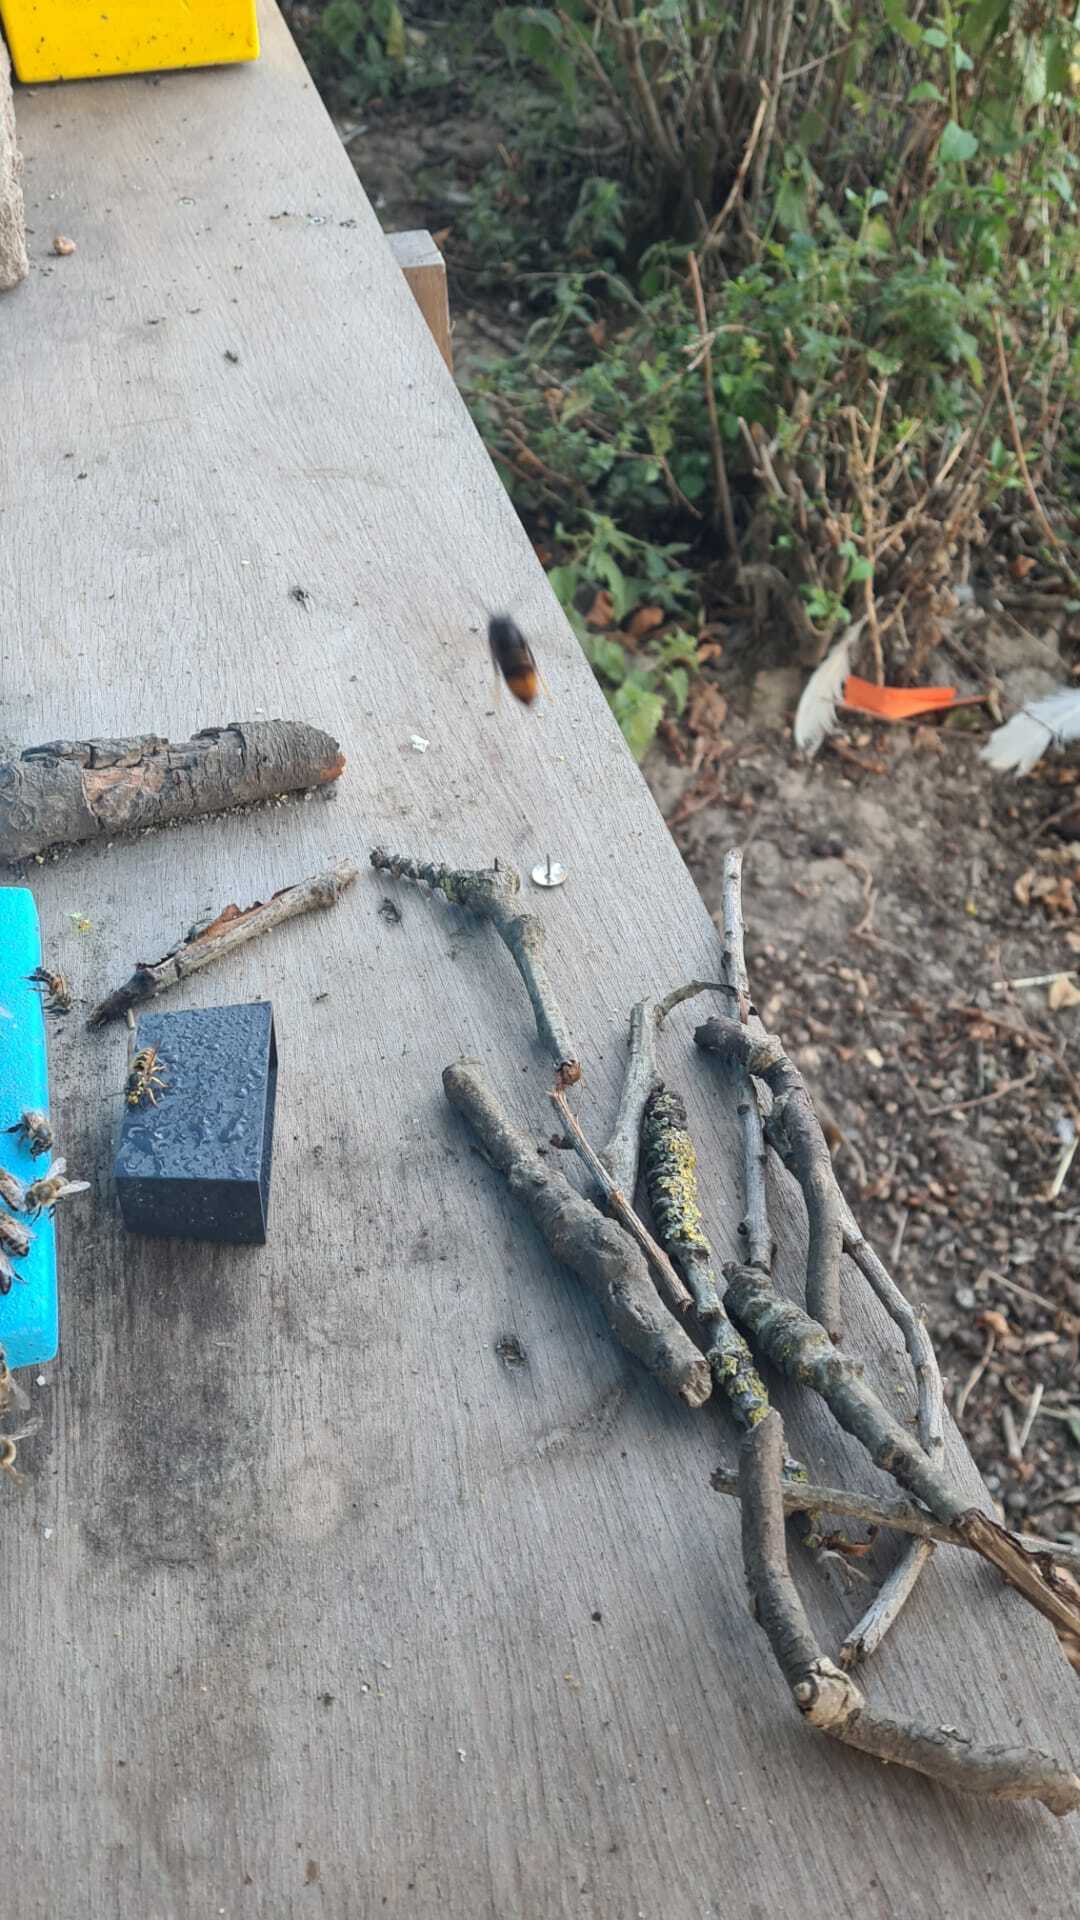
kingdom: Animalia
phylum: Arthropoda
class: Insecta
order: Hymenoptera
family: Vespidae
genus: Vespa
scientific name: Vespa velutina
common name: Asian hornet
